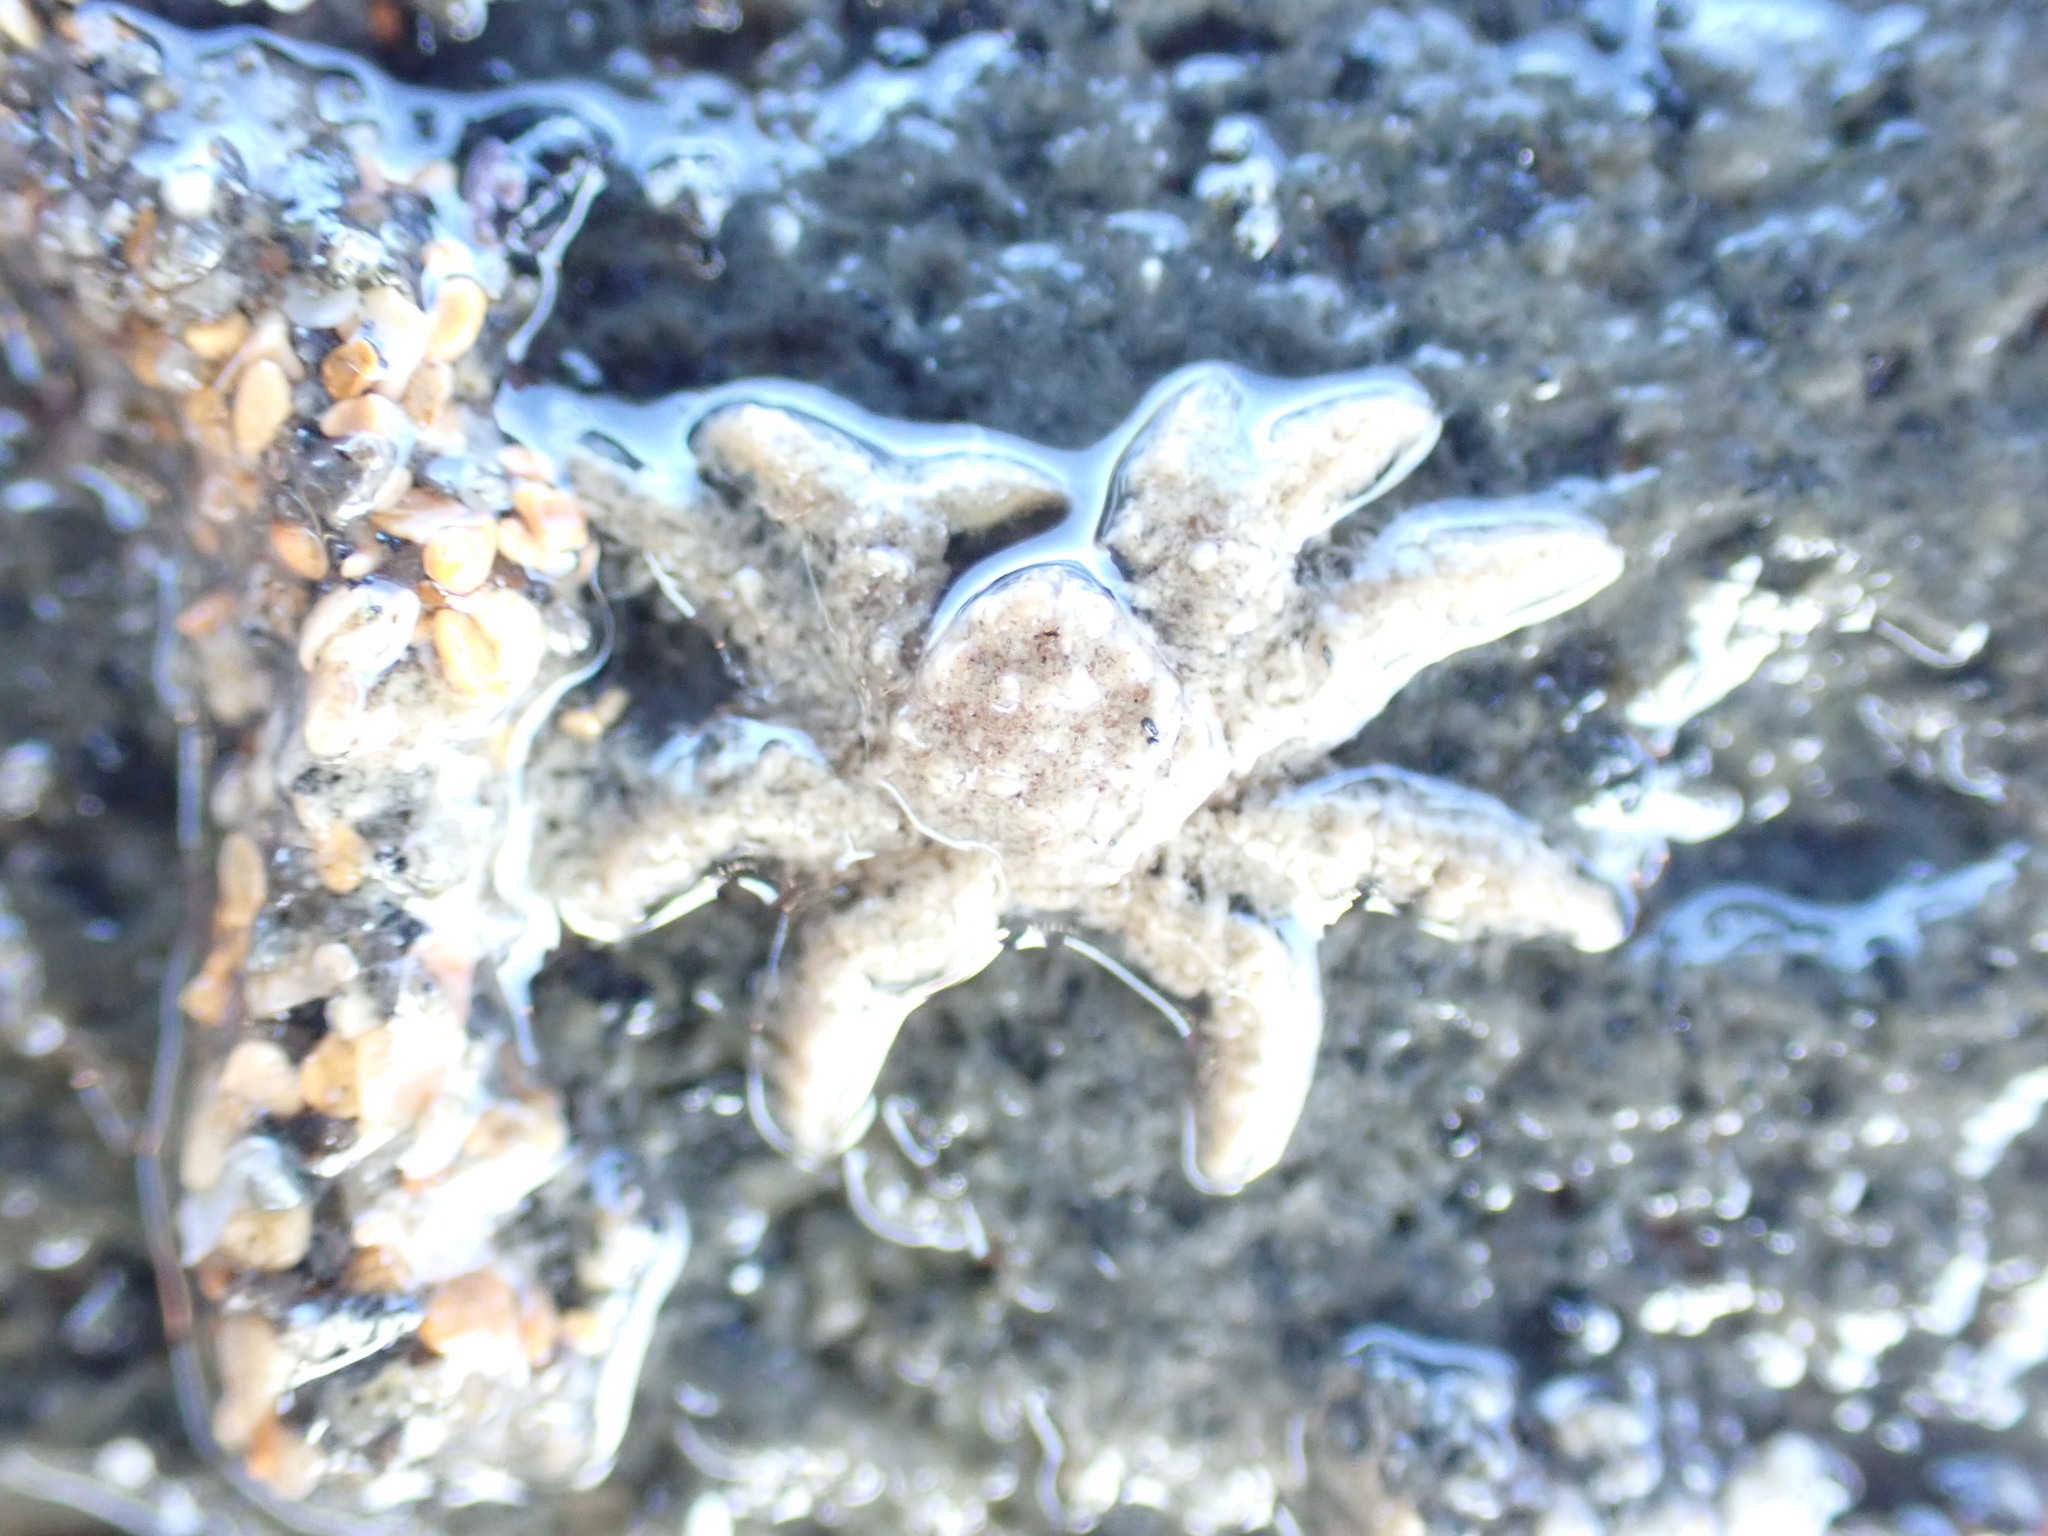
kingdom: Animalia
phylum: Arthropoda
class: Malacostraca
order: Decapoda
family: Hymenosomatidae
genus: Neohymenicus
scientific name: Neohymenicus pubescens
